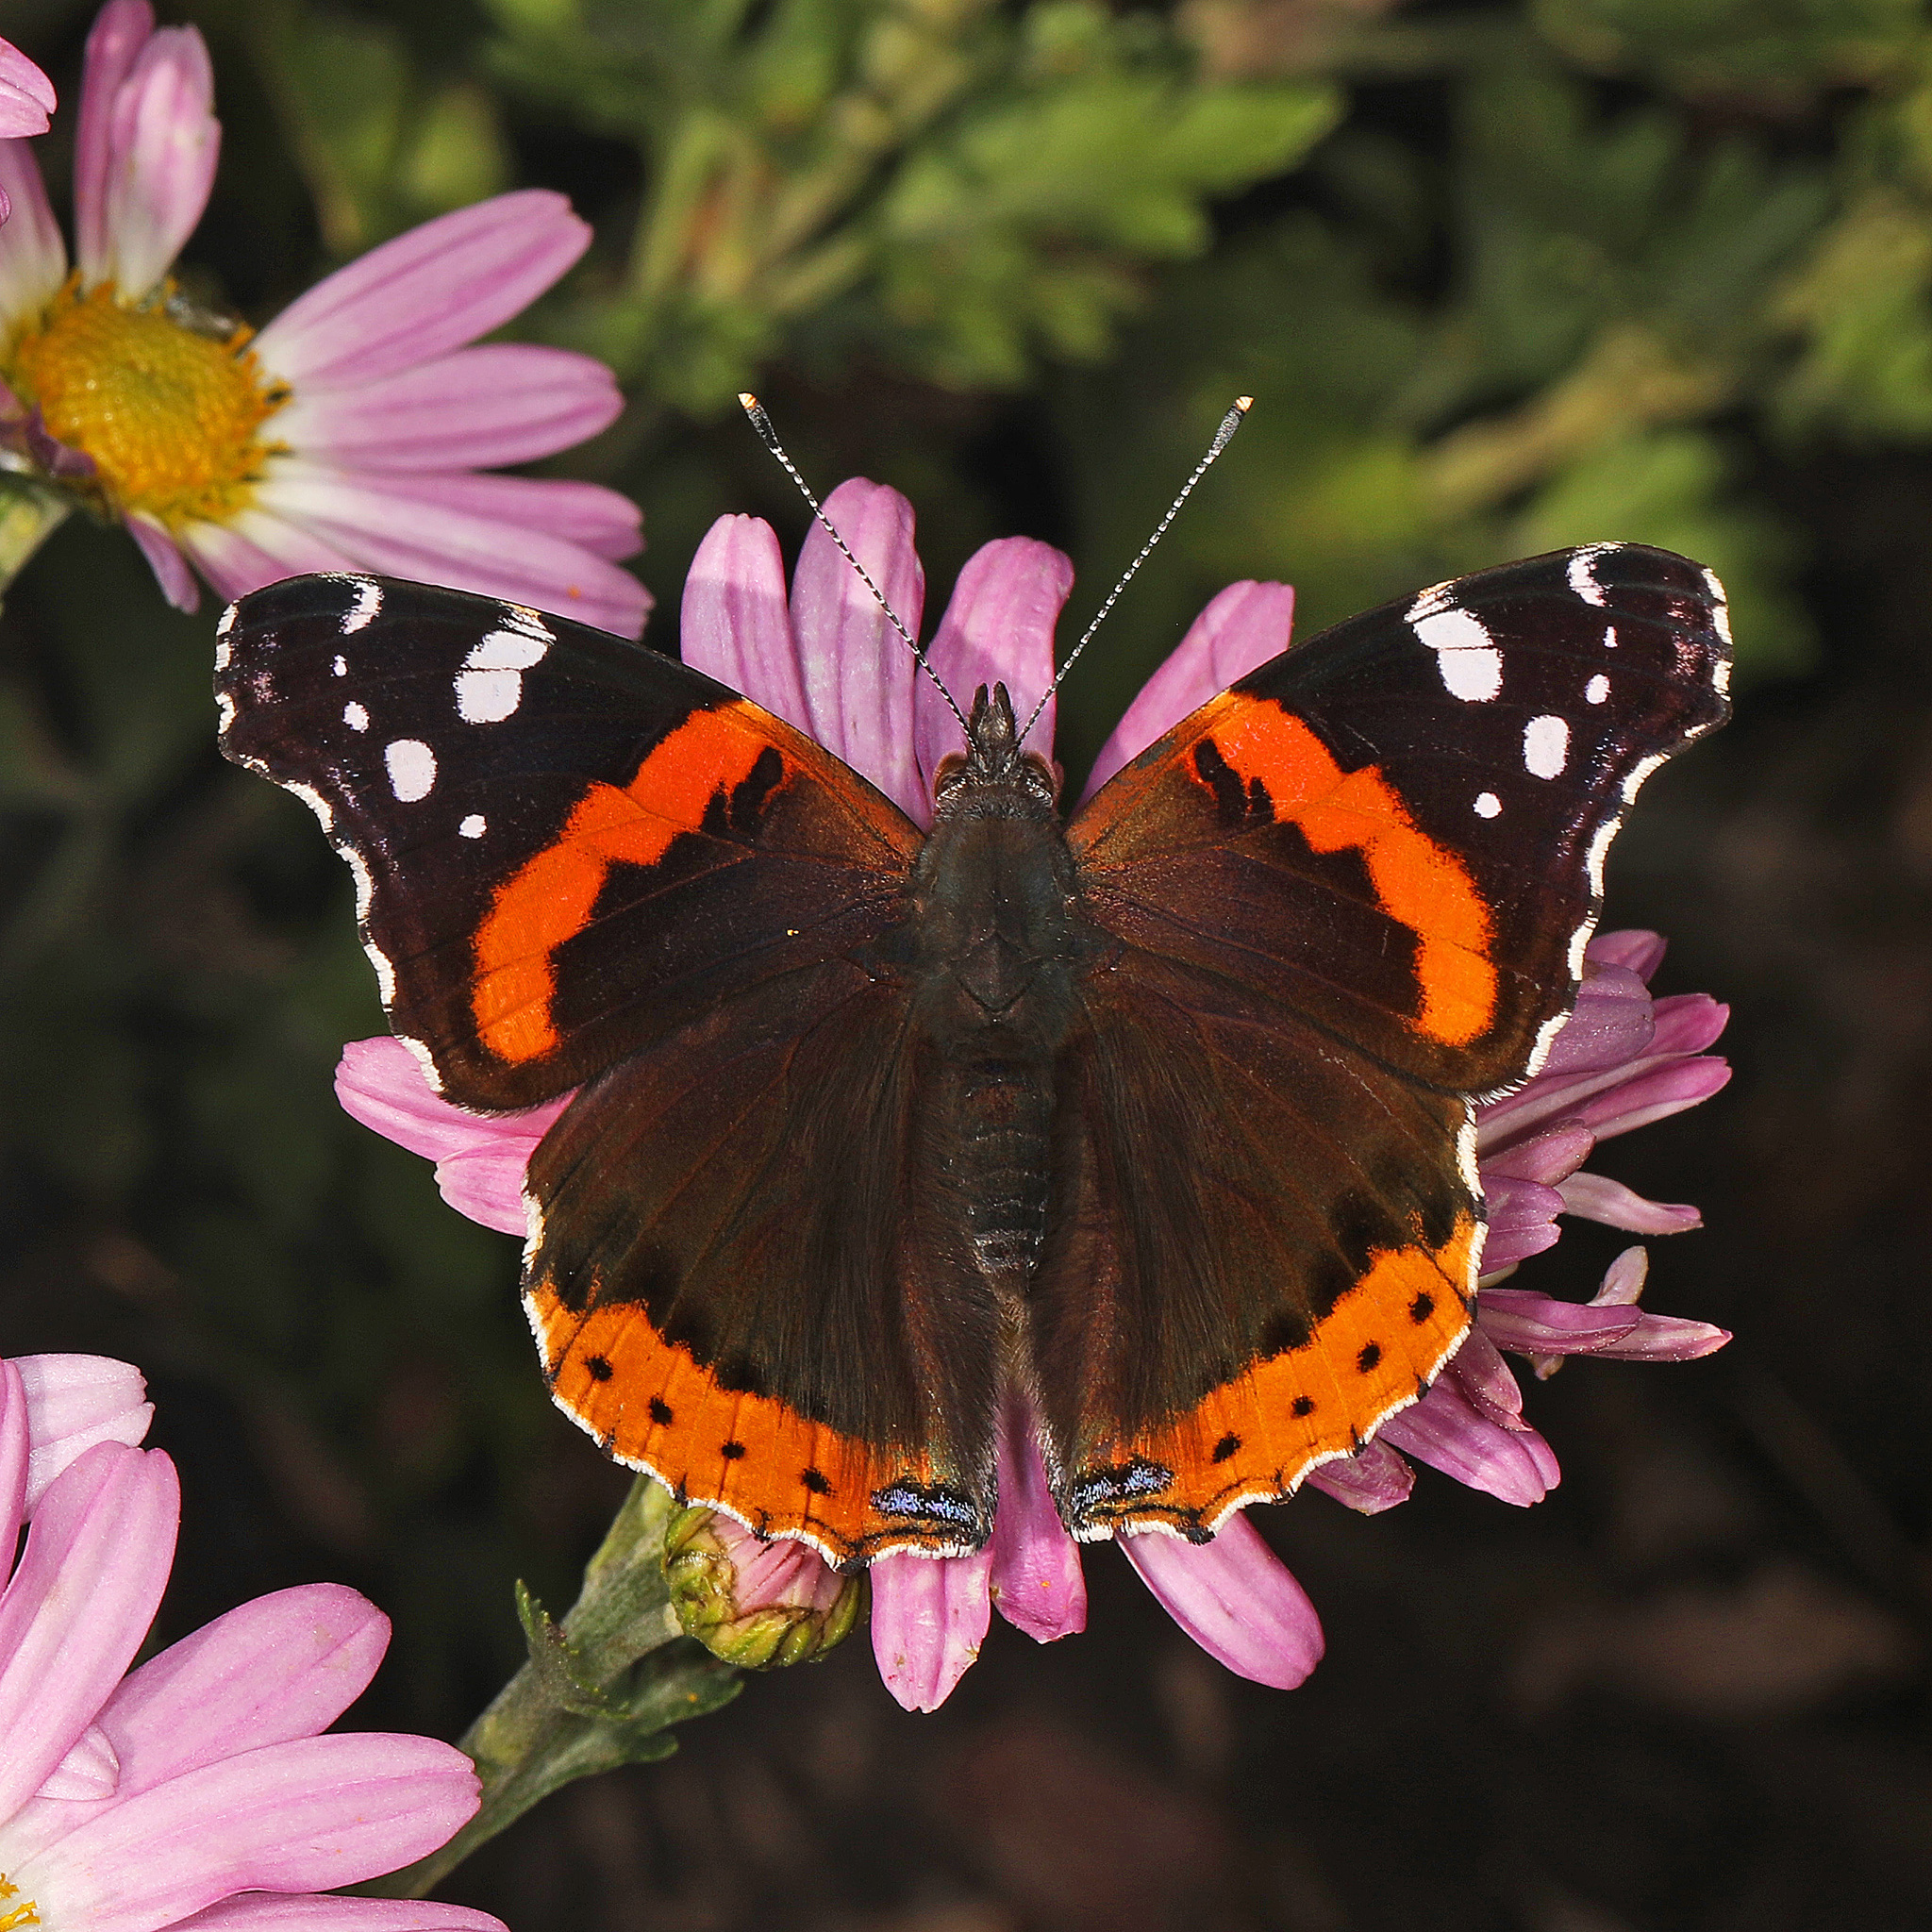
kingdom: Animalia
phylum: Arthropoda
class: Insecta
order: Lepidoptera
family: Nymphalidae
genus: Vanessa
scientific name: Vanessa atalanta
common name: Red admiral
